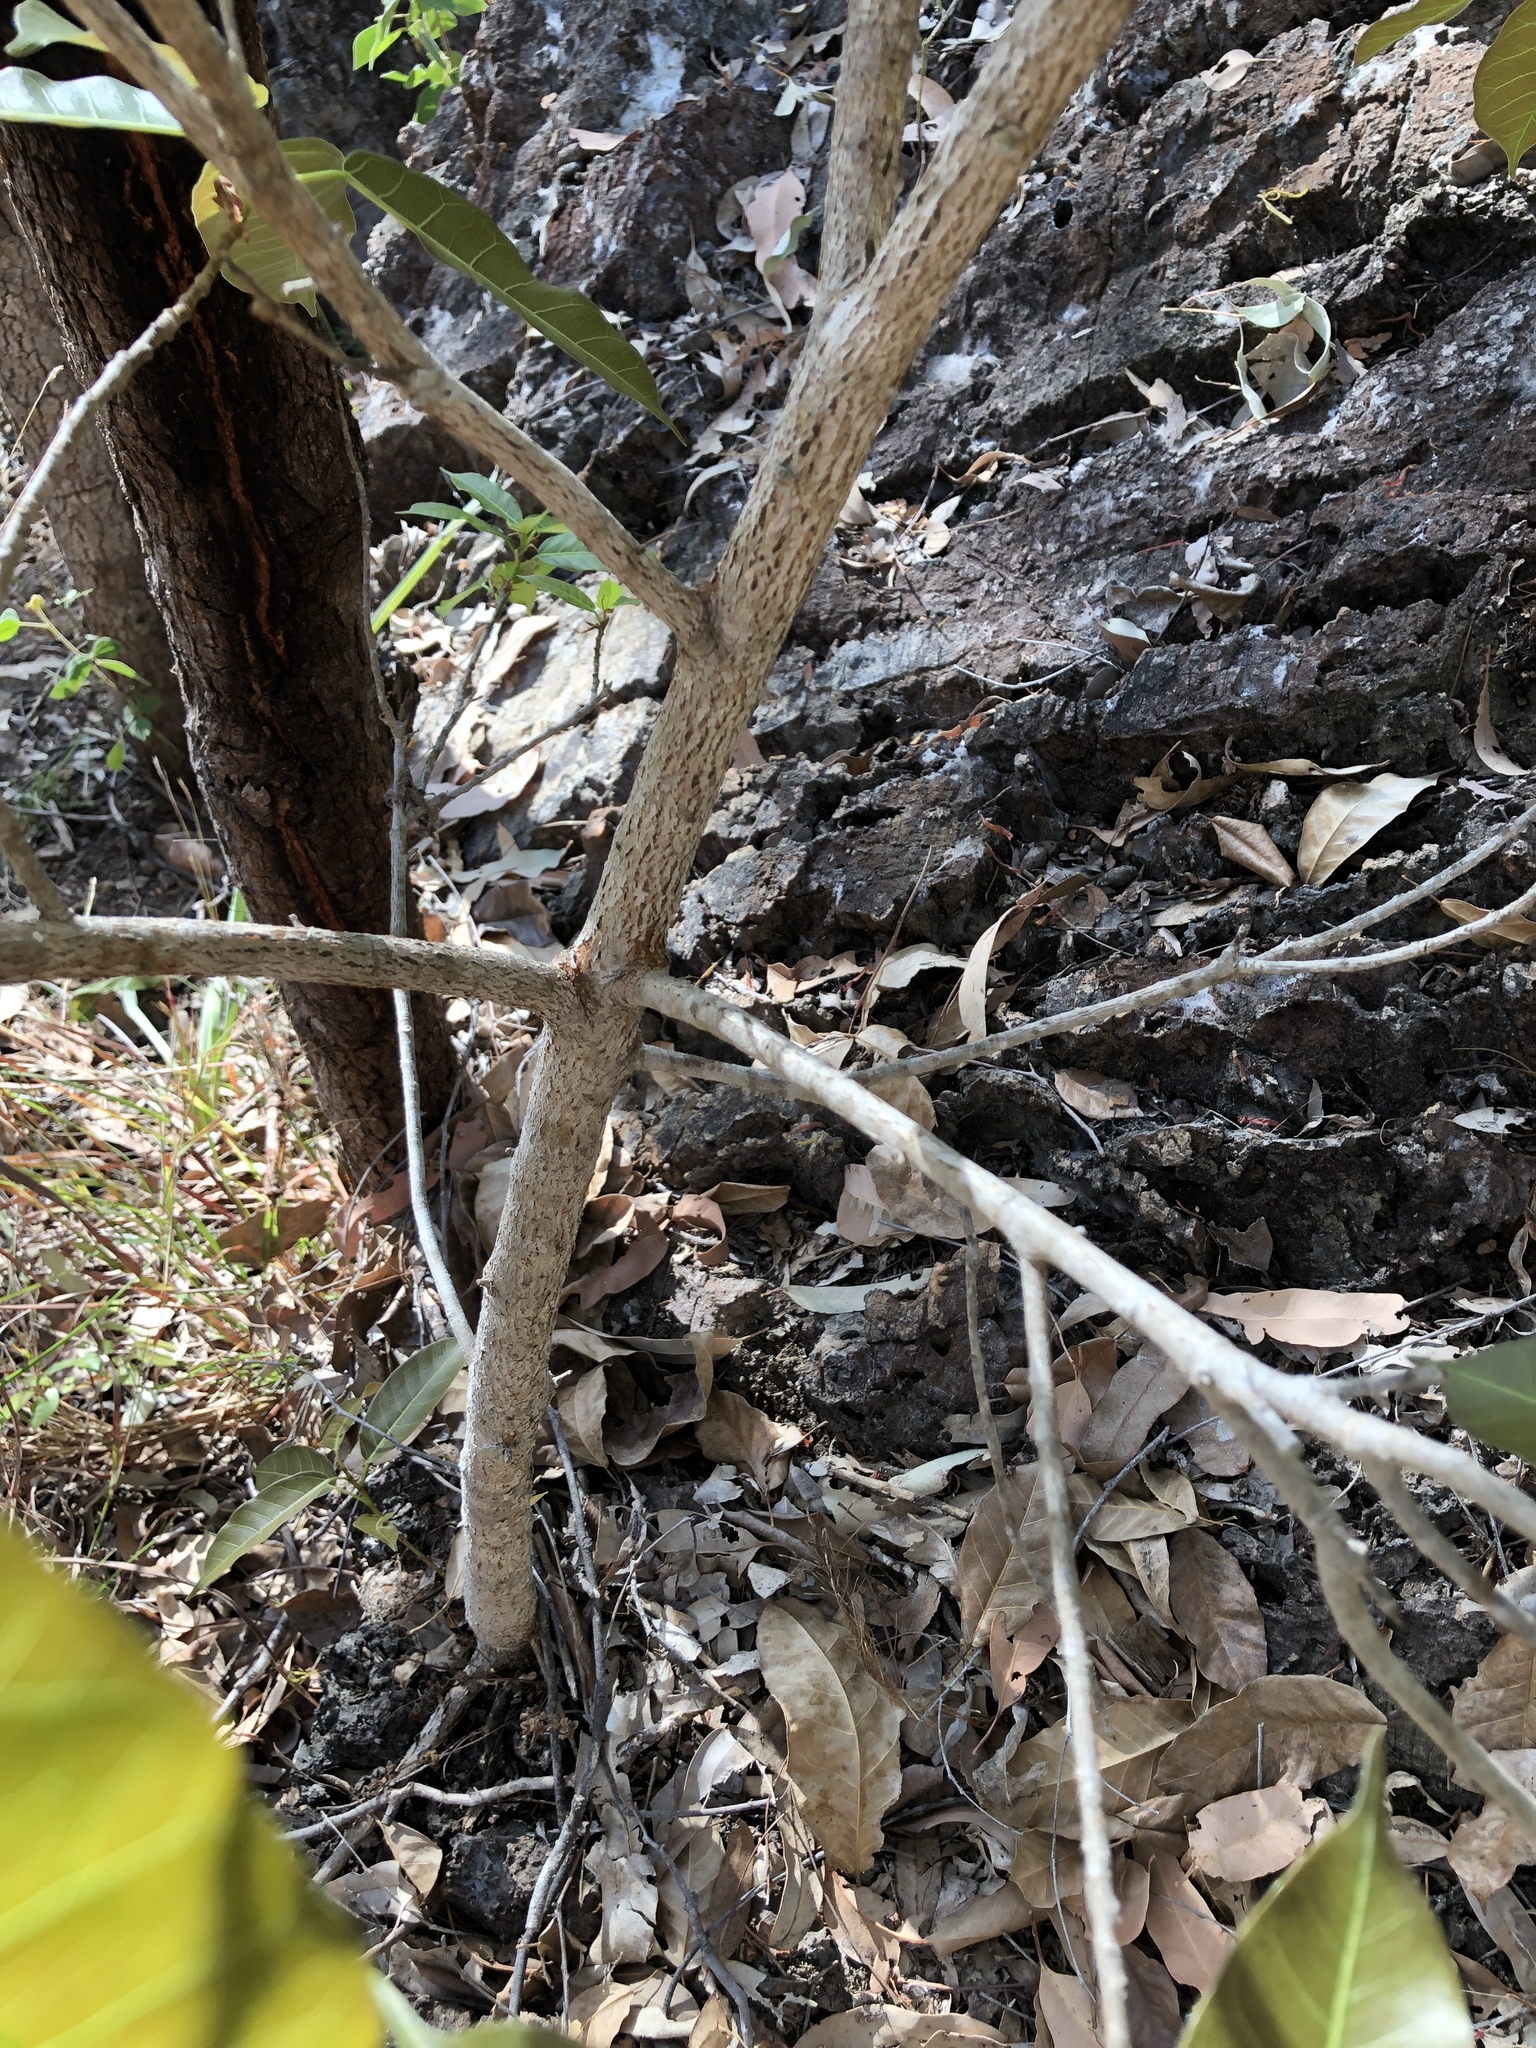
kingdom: Plantae
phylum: Tracheophyta
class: Magnoliopsida
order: Rosales
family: Moraceae
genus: Ficus
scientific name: Ficus virens
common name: Spotted fig
